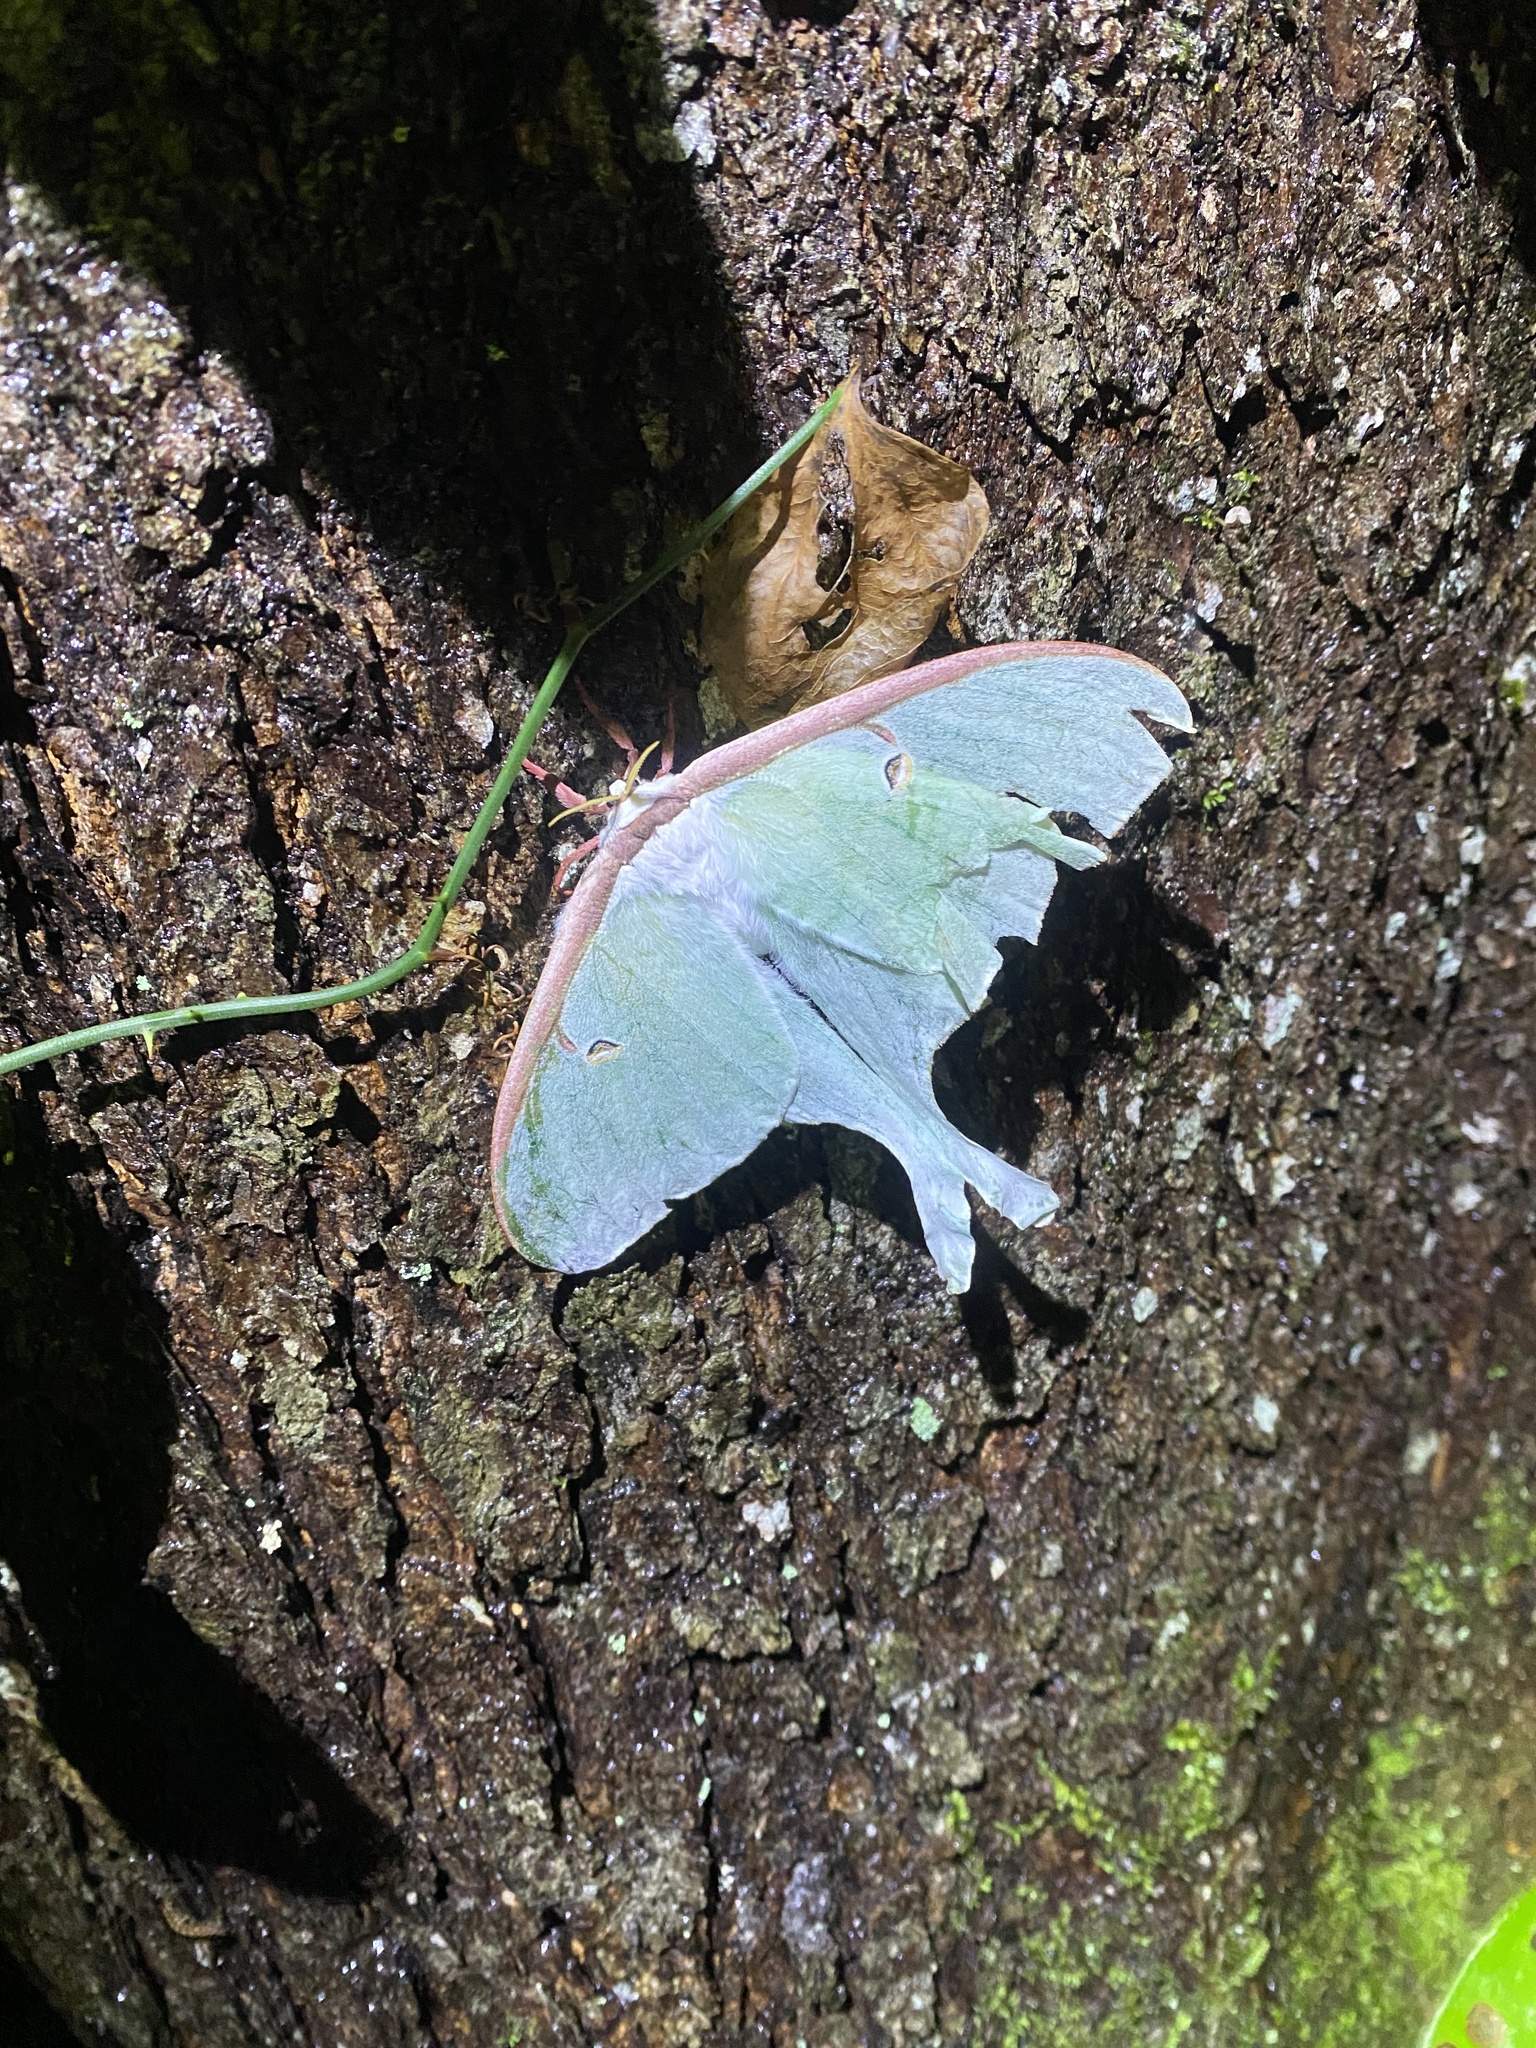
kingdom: Animalia
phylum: Arthropoda
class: Insecta
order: Lepidoptera
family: Saturniidae
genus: Actias
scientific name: Actias luna
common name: Luna moth
